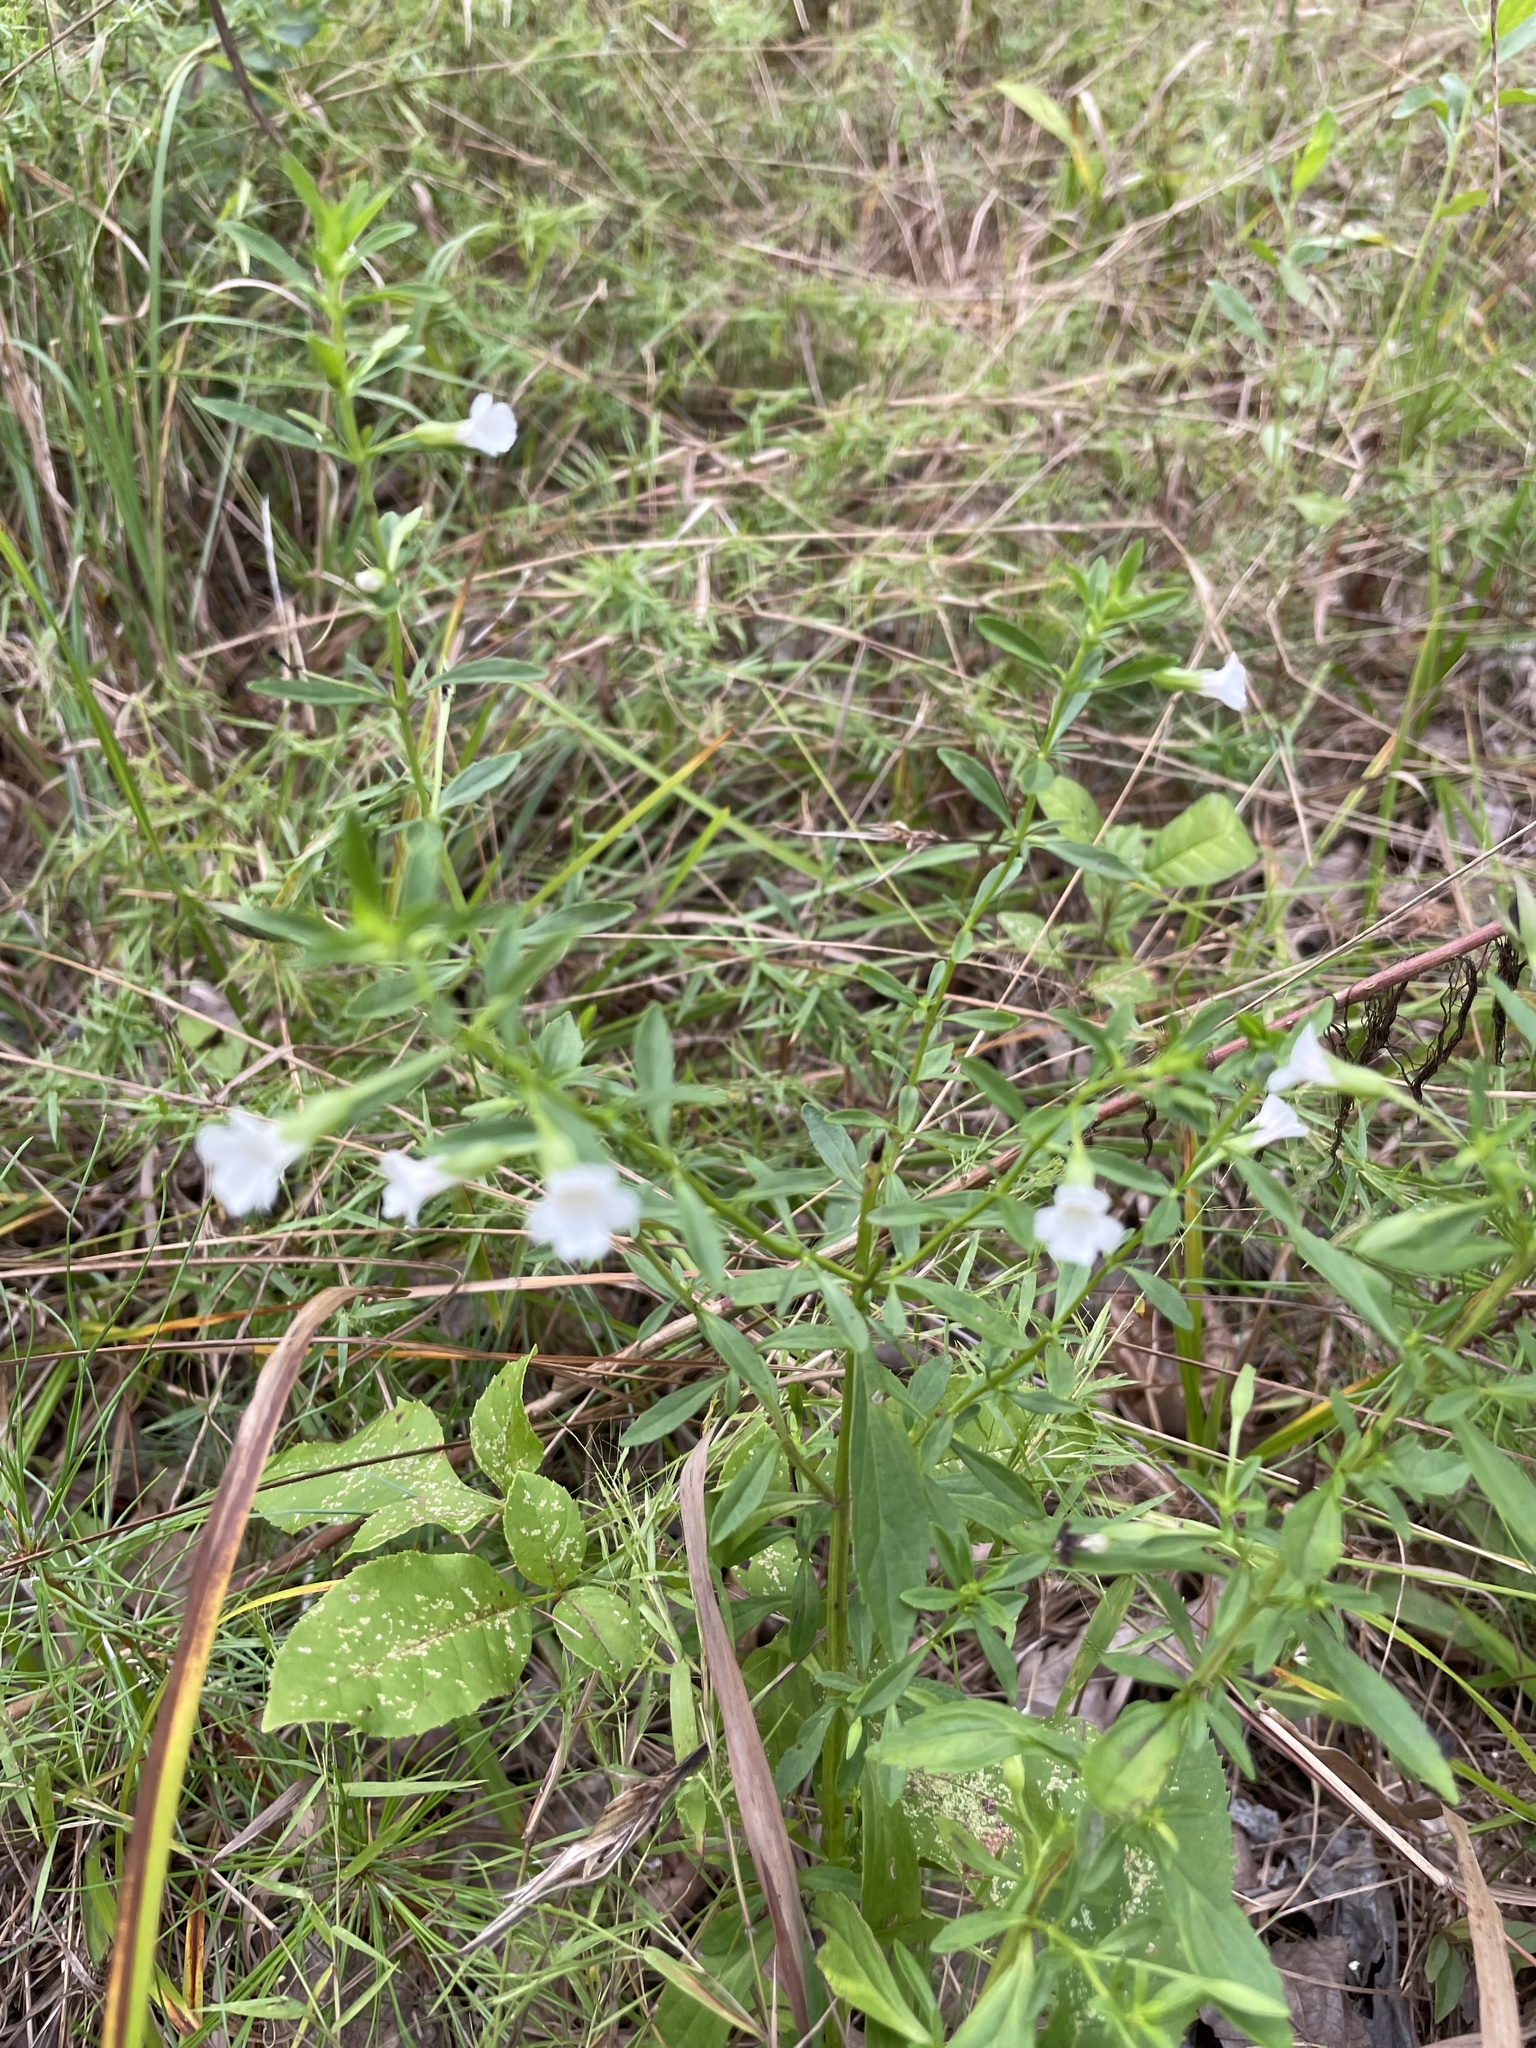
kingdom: Plantae
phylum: Tracheophyta
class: Magnoliopsida
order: Lamiales
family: Plantaginaceae
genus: Mecardonia
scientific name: Mecardonia acuminata
